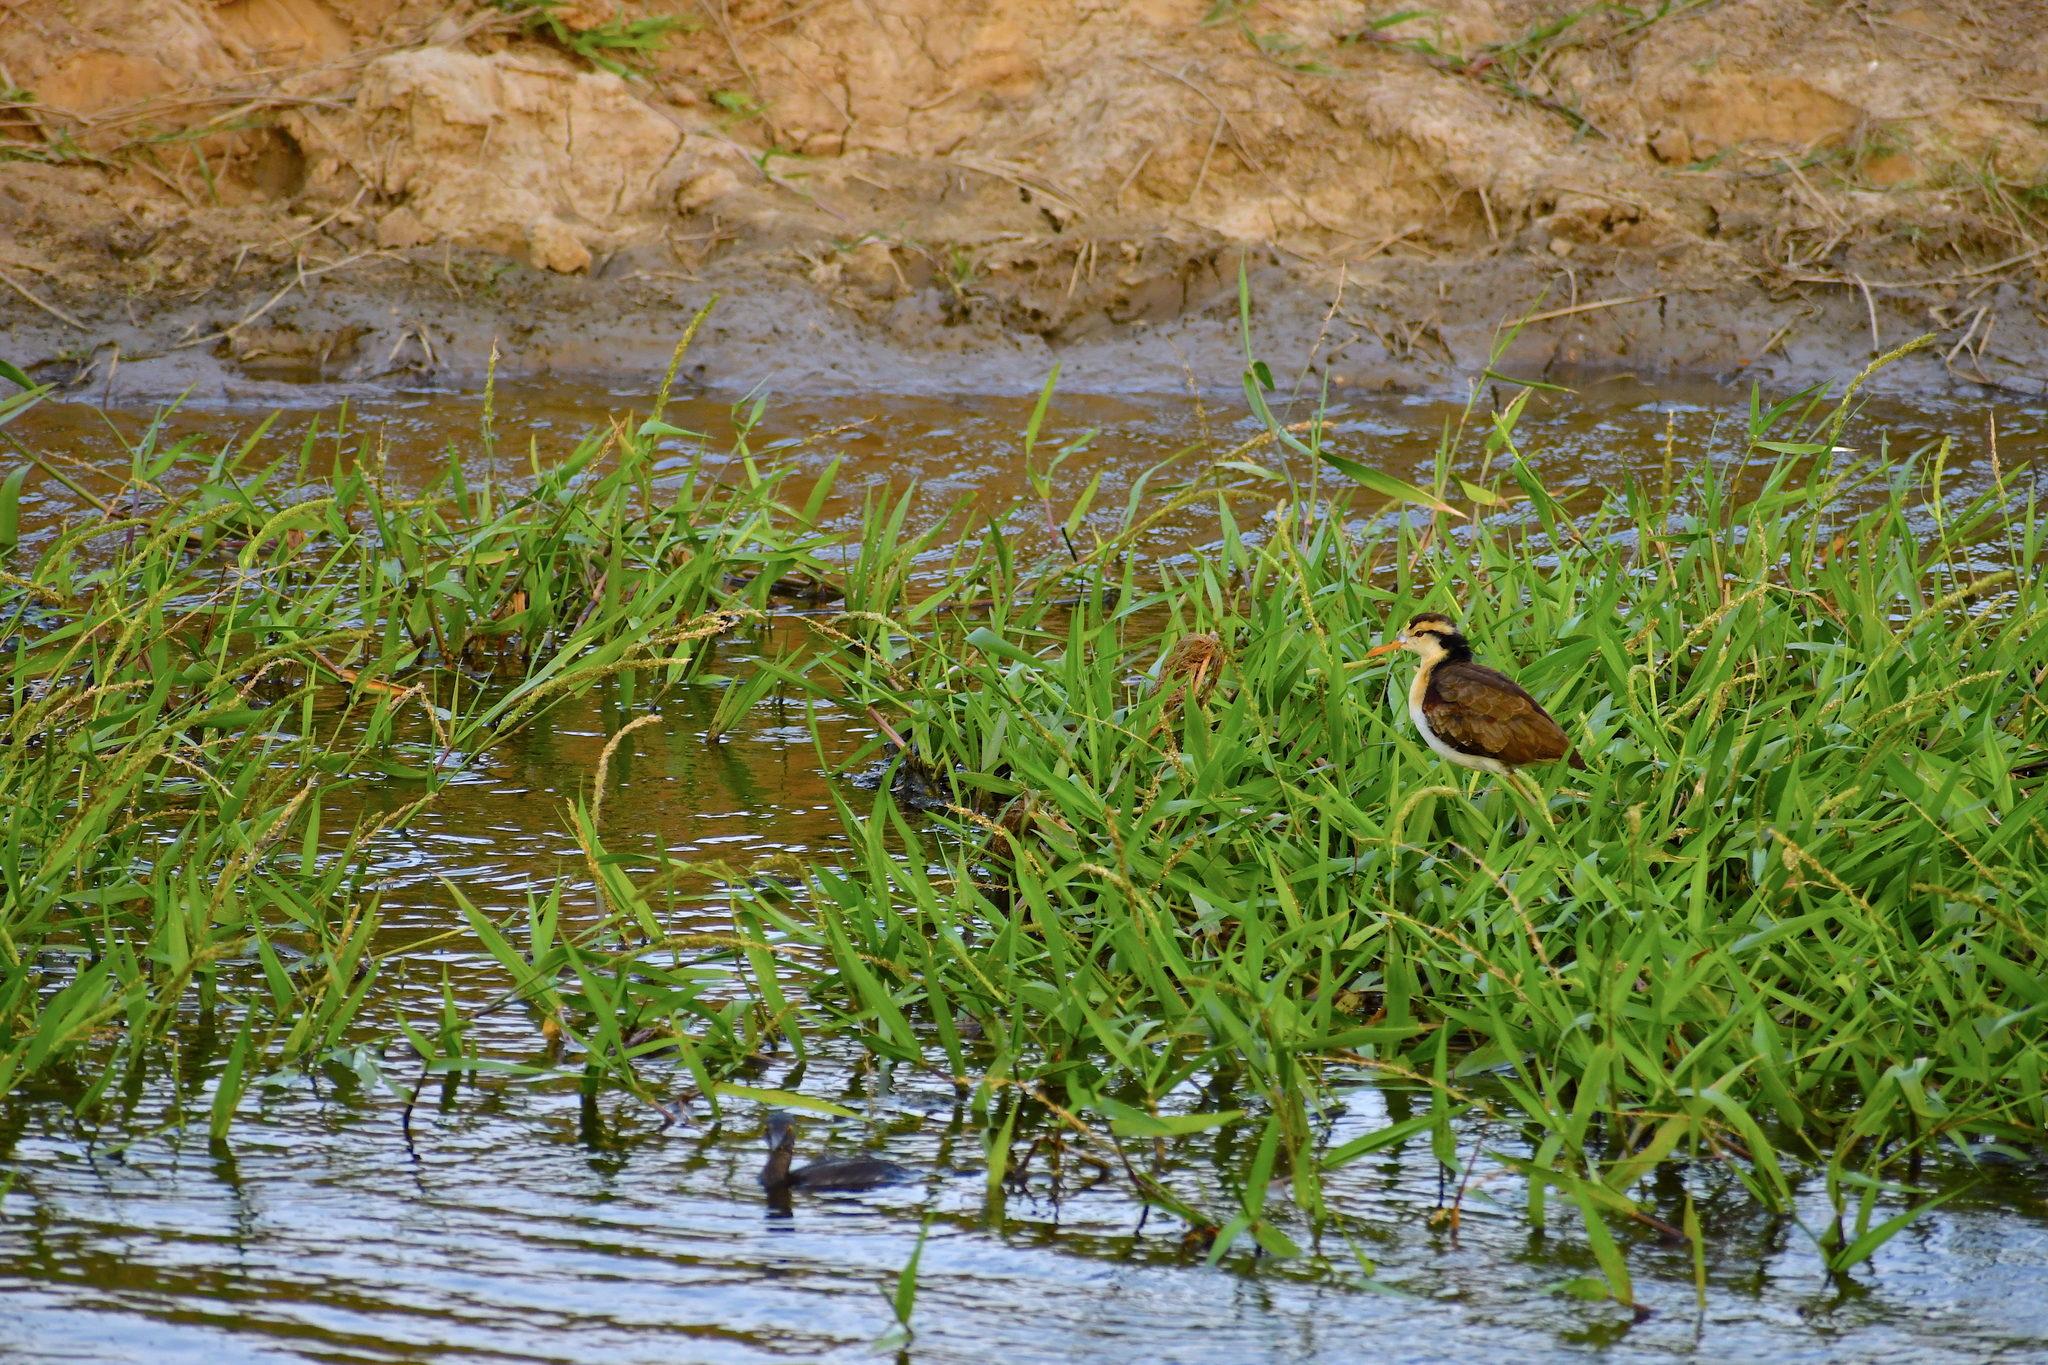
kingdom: Animalia
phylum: Chordata
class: Aves
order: Charadriiformes
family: Jacanidae
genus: Jacana
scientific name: Jacana spinosa
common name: Northern jacana
